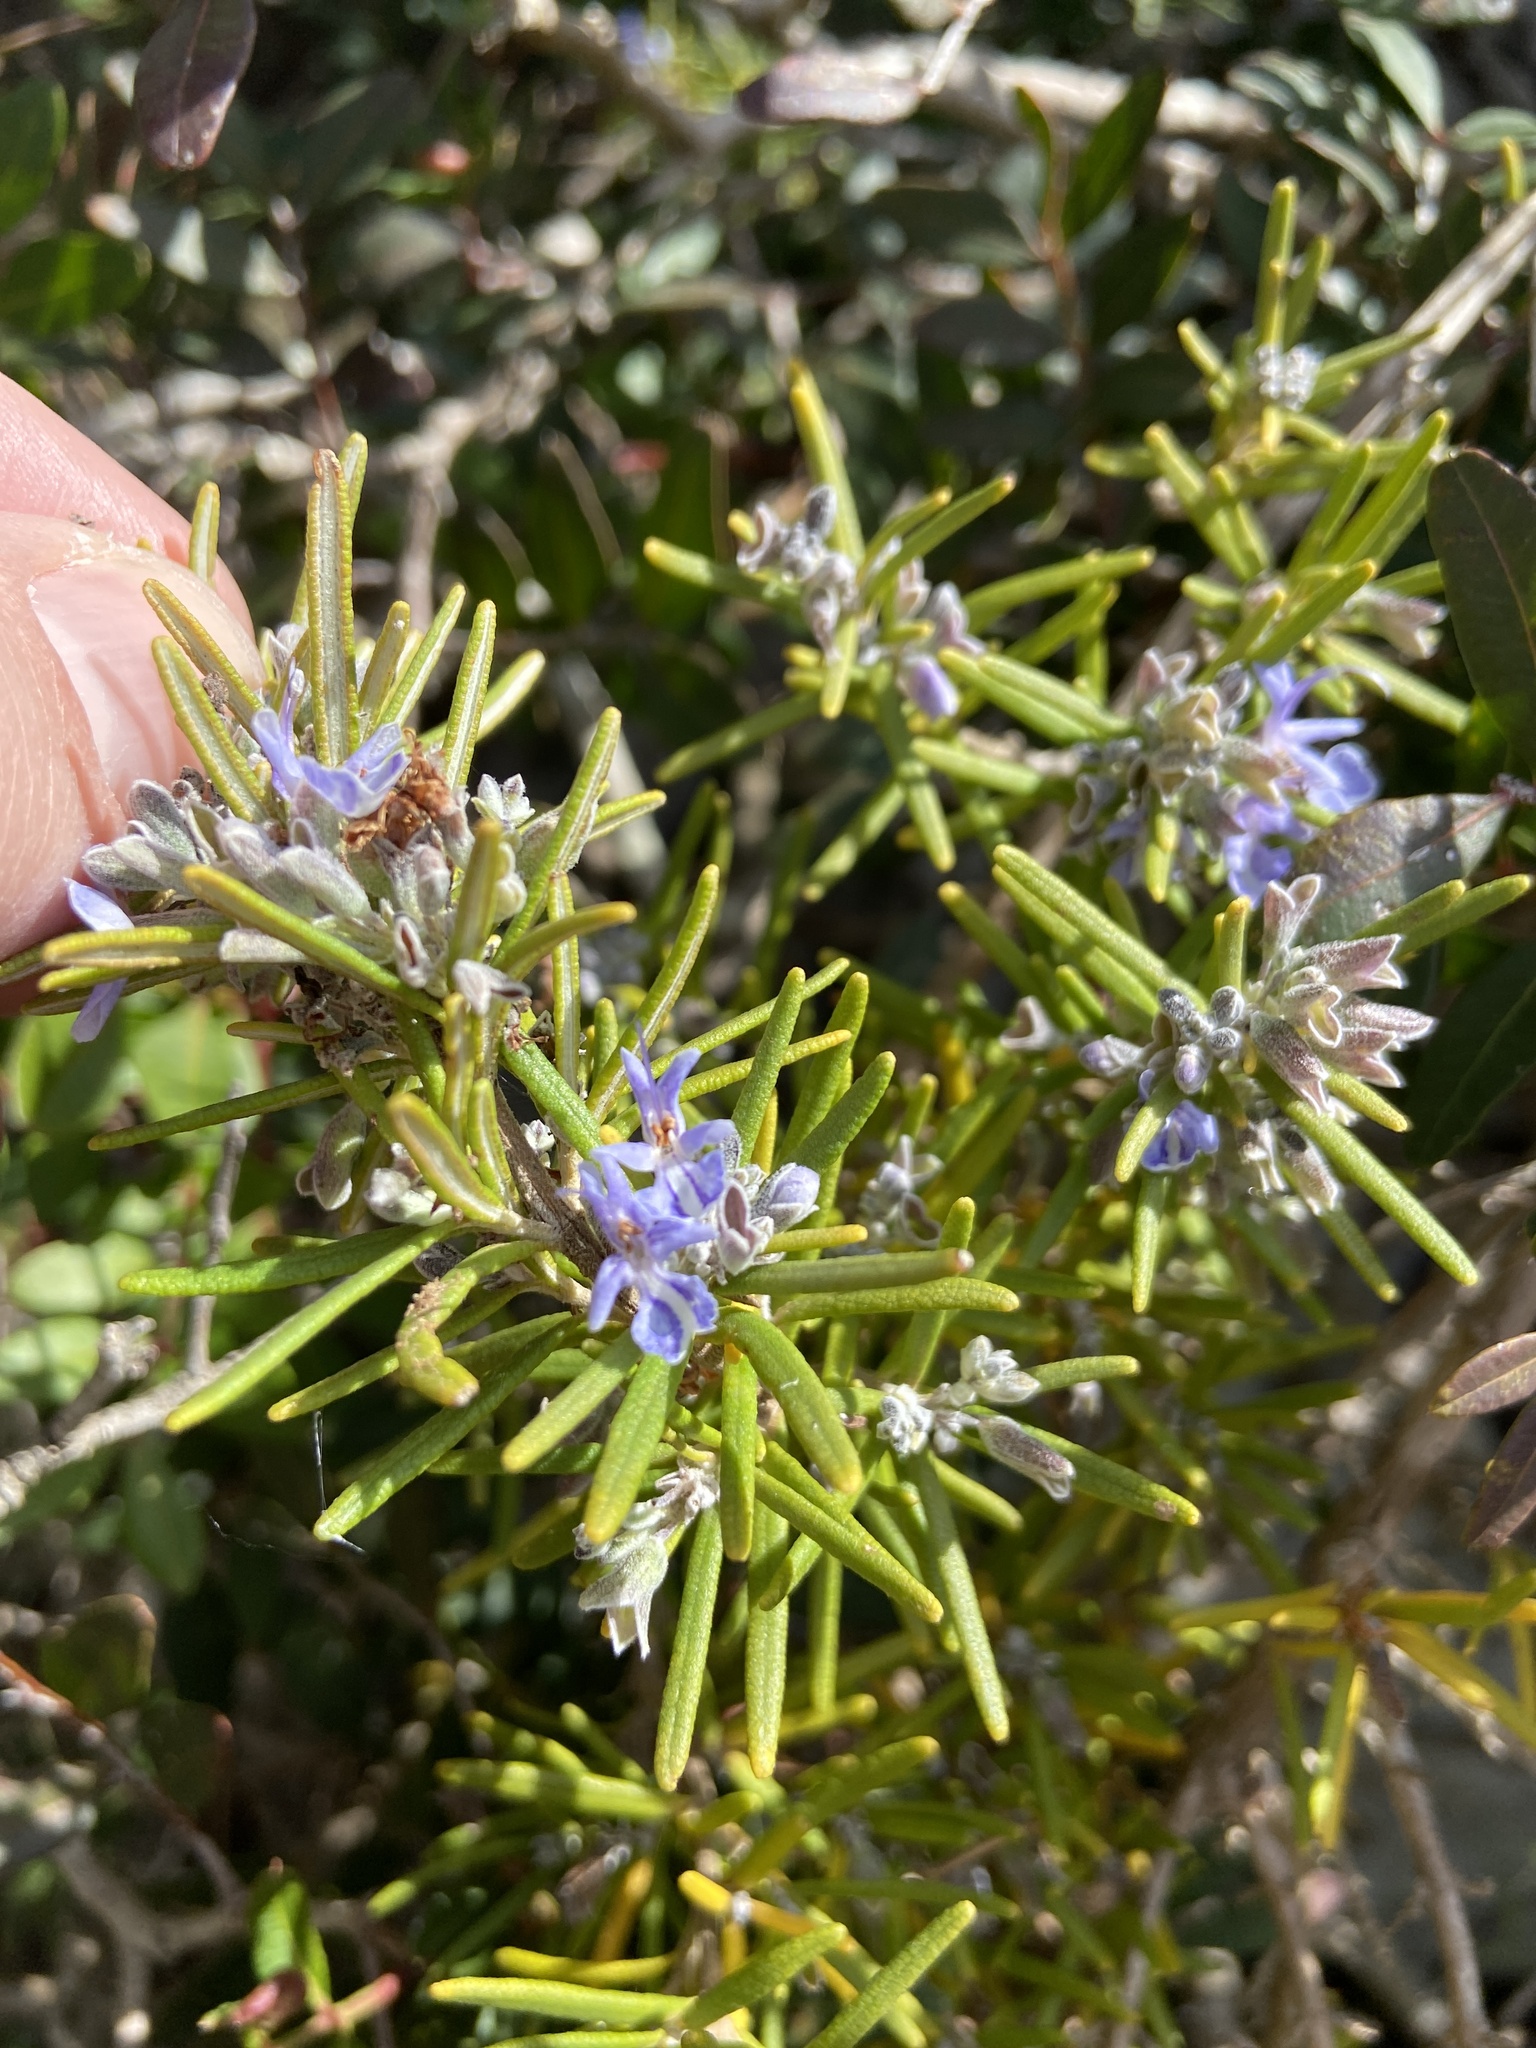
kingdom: Plantae
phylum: Tracheophyta
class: Magnoliopsida
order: Lamiales
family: Lamiaceae
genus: Salvia
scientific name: Salvia rosmarinus
